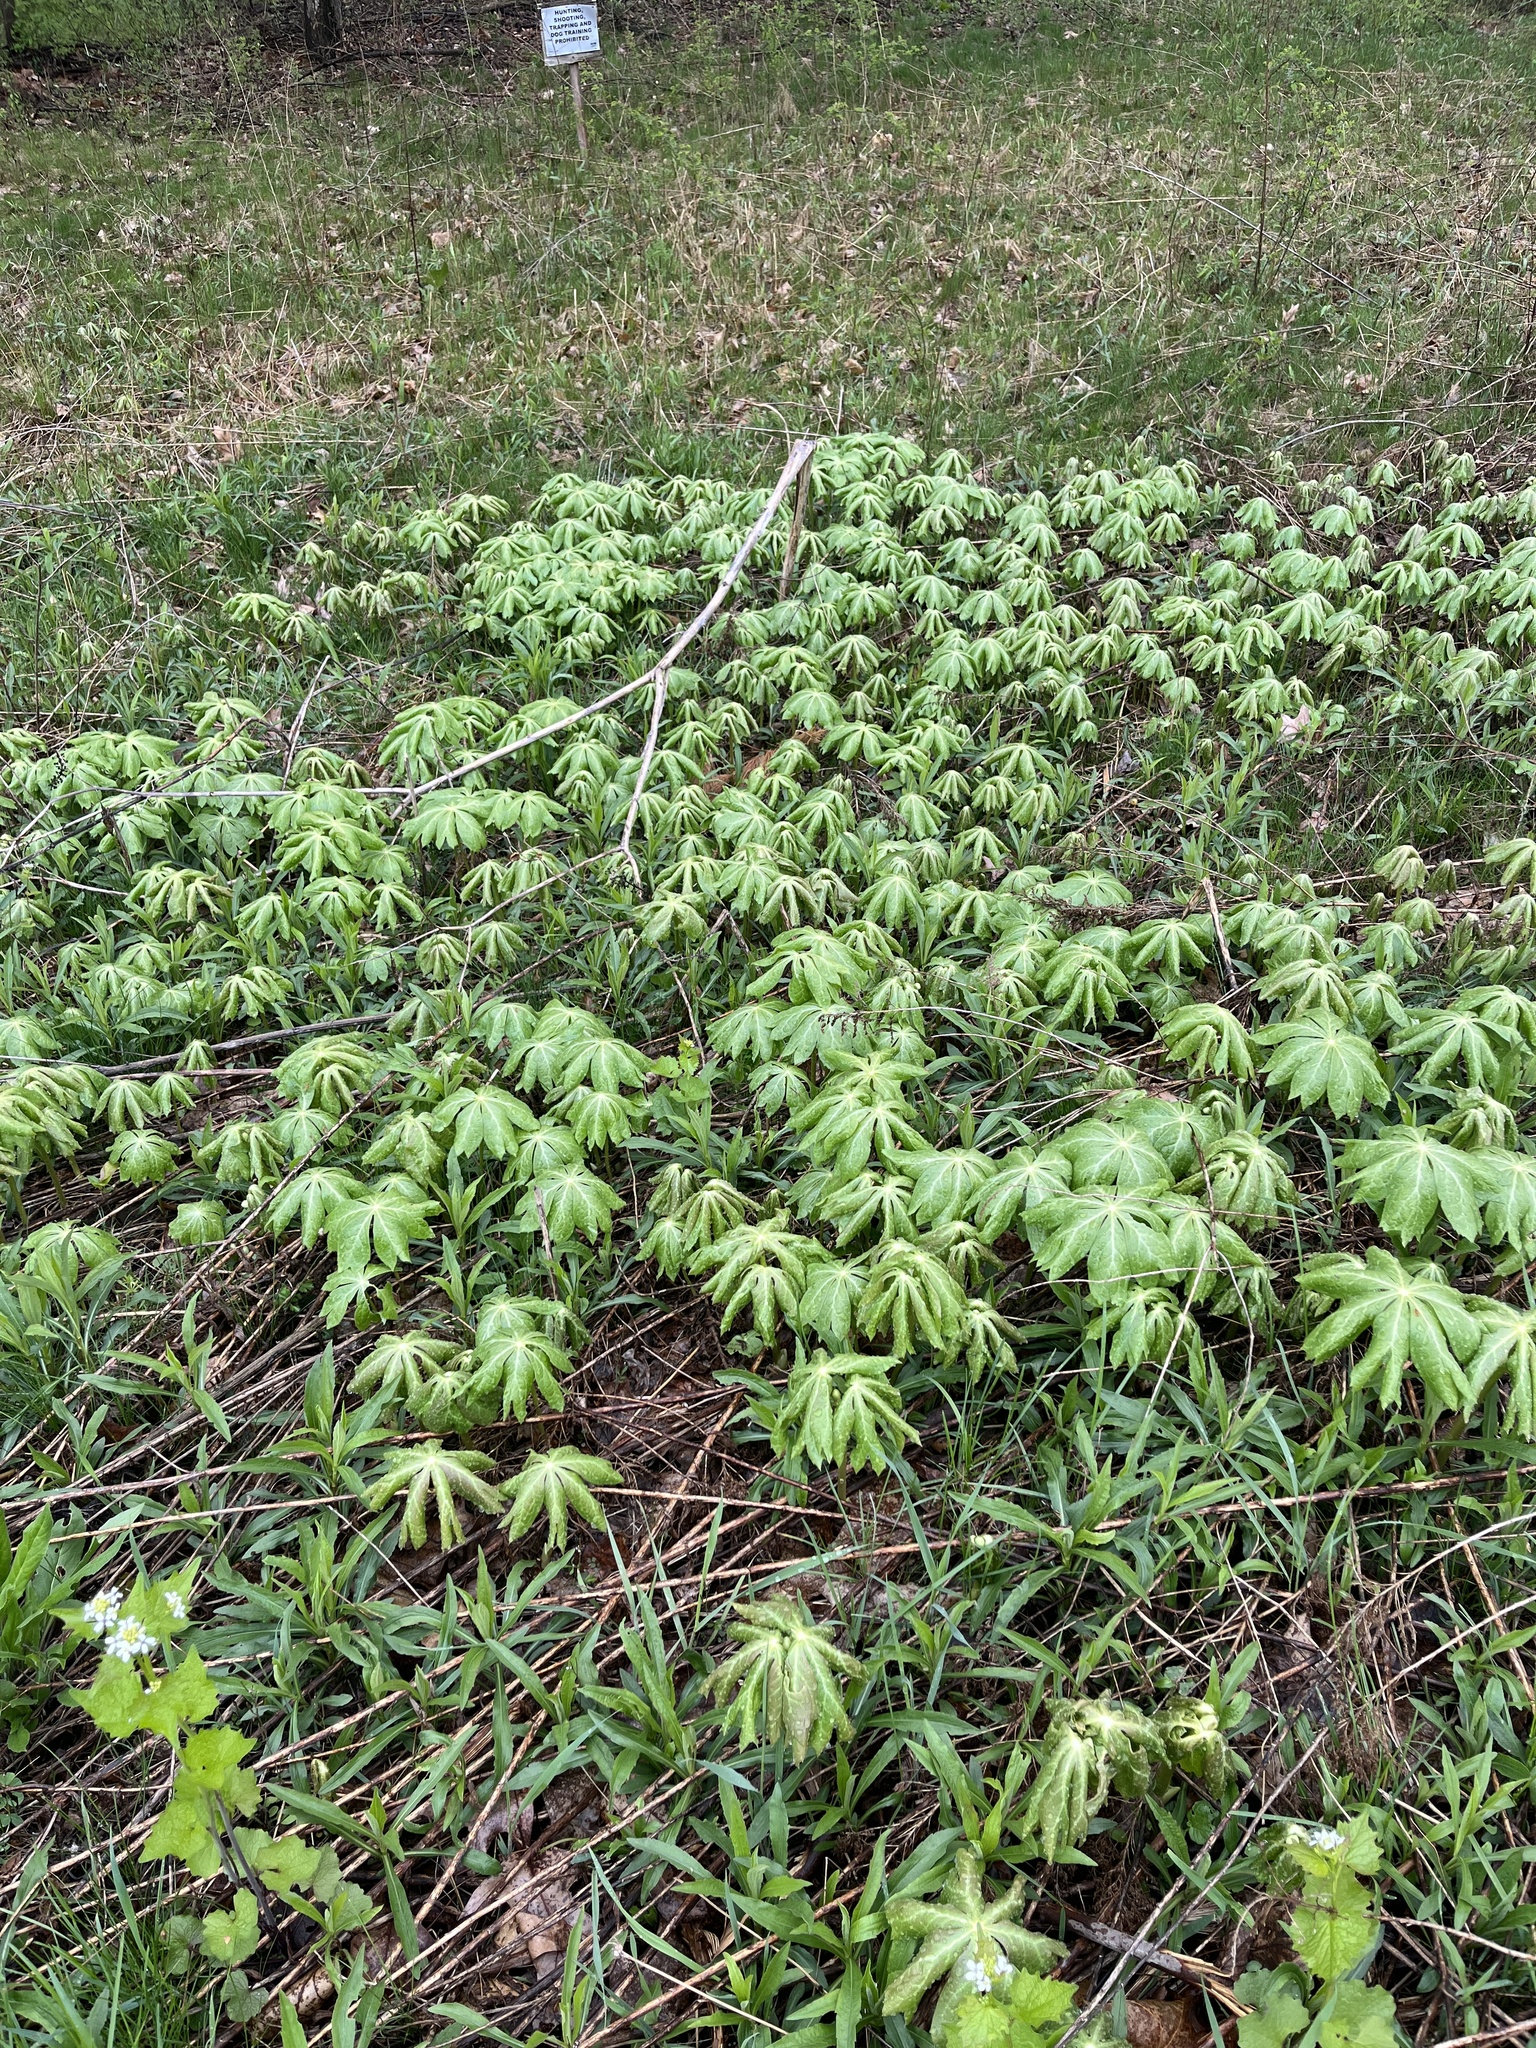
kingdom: Plantae
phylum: Tracheophyta
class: Magnoliopsida
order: Ranunculales
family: Berberidaceae
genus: Podophyllum
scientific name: Podophyllum peltatum
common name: Wild mandrake
